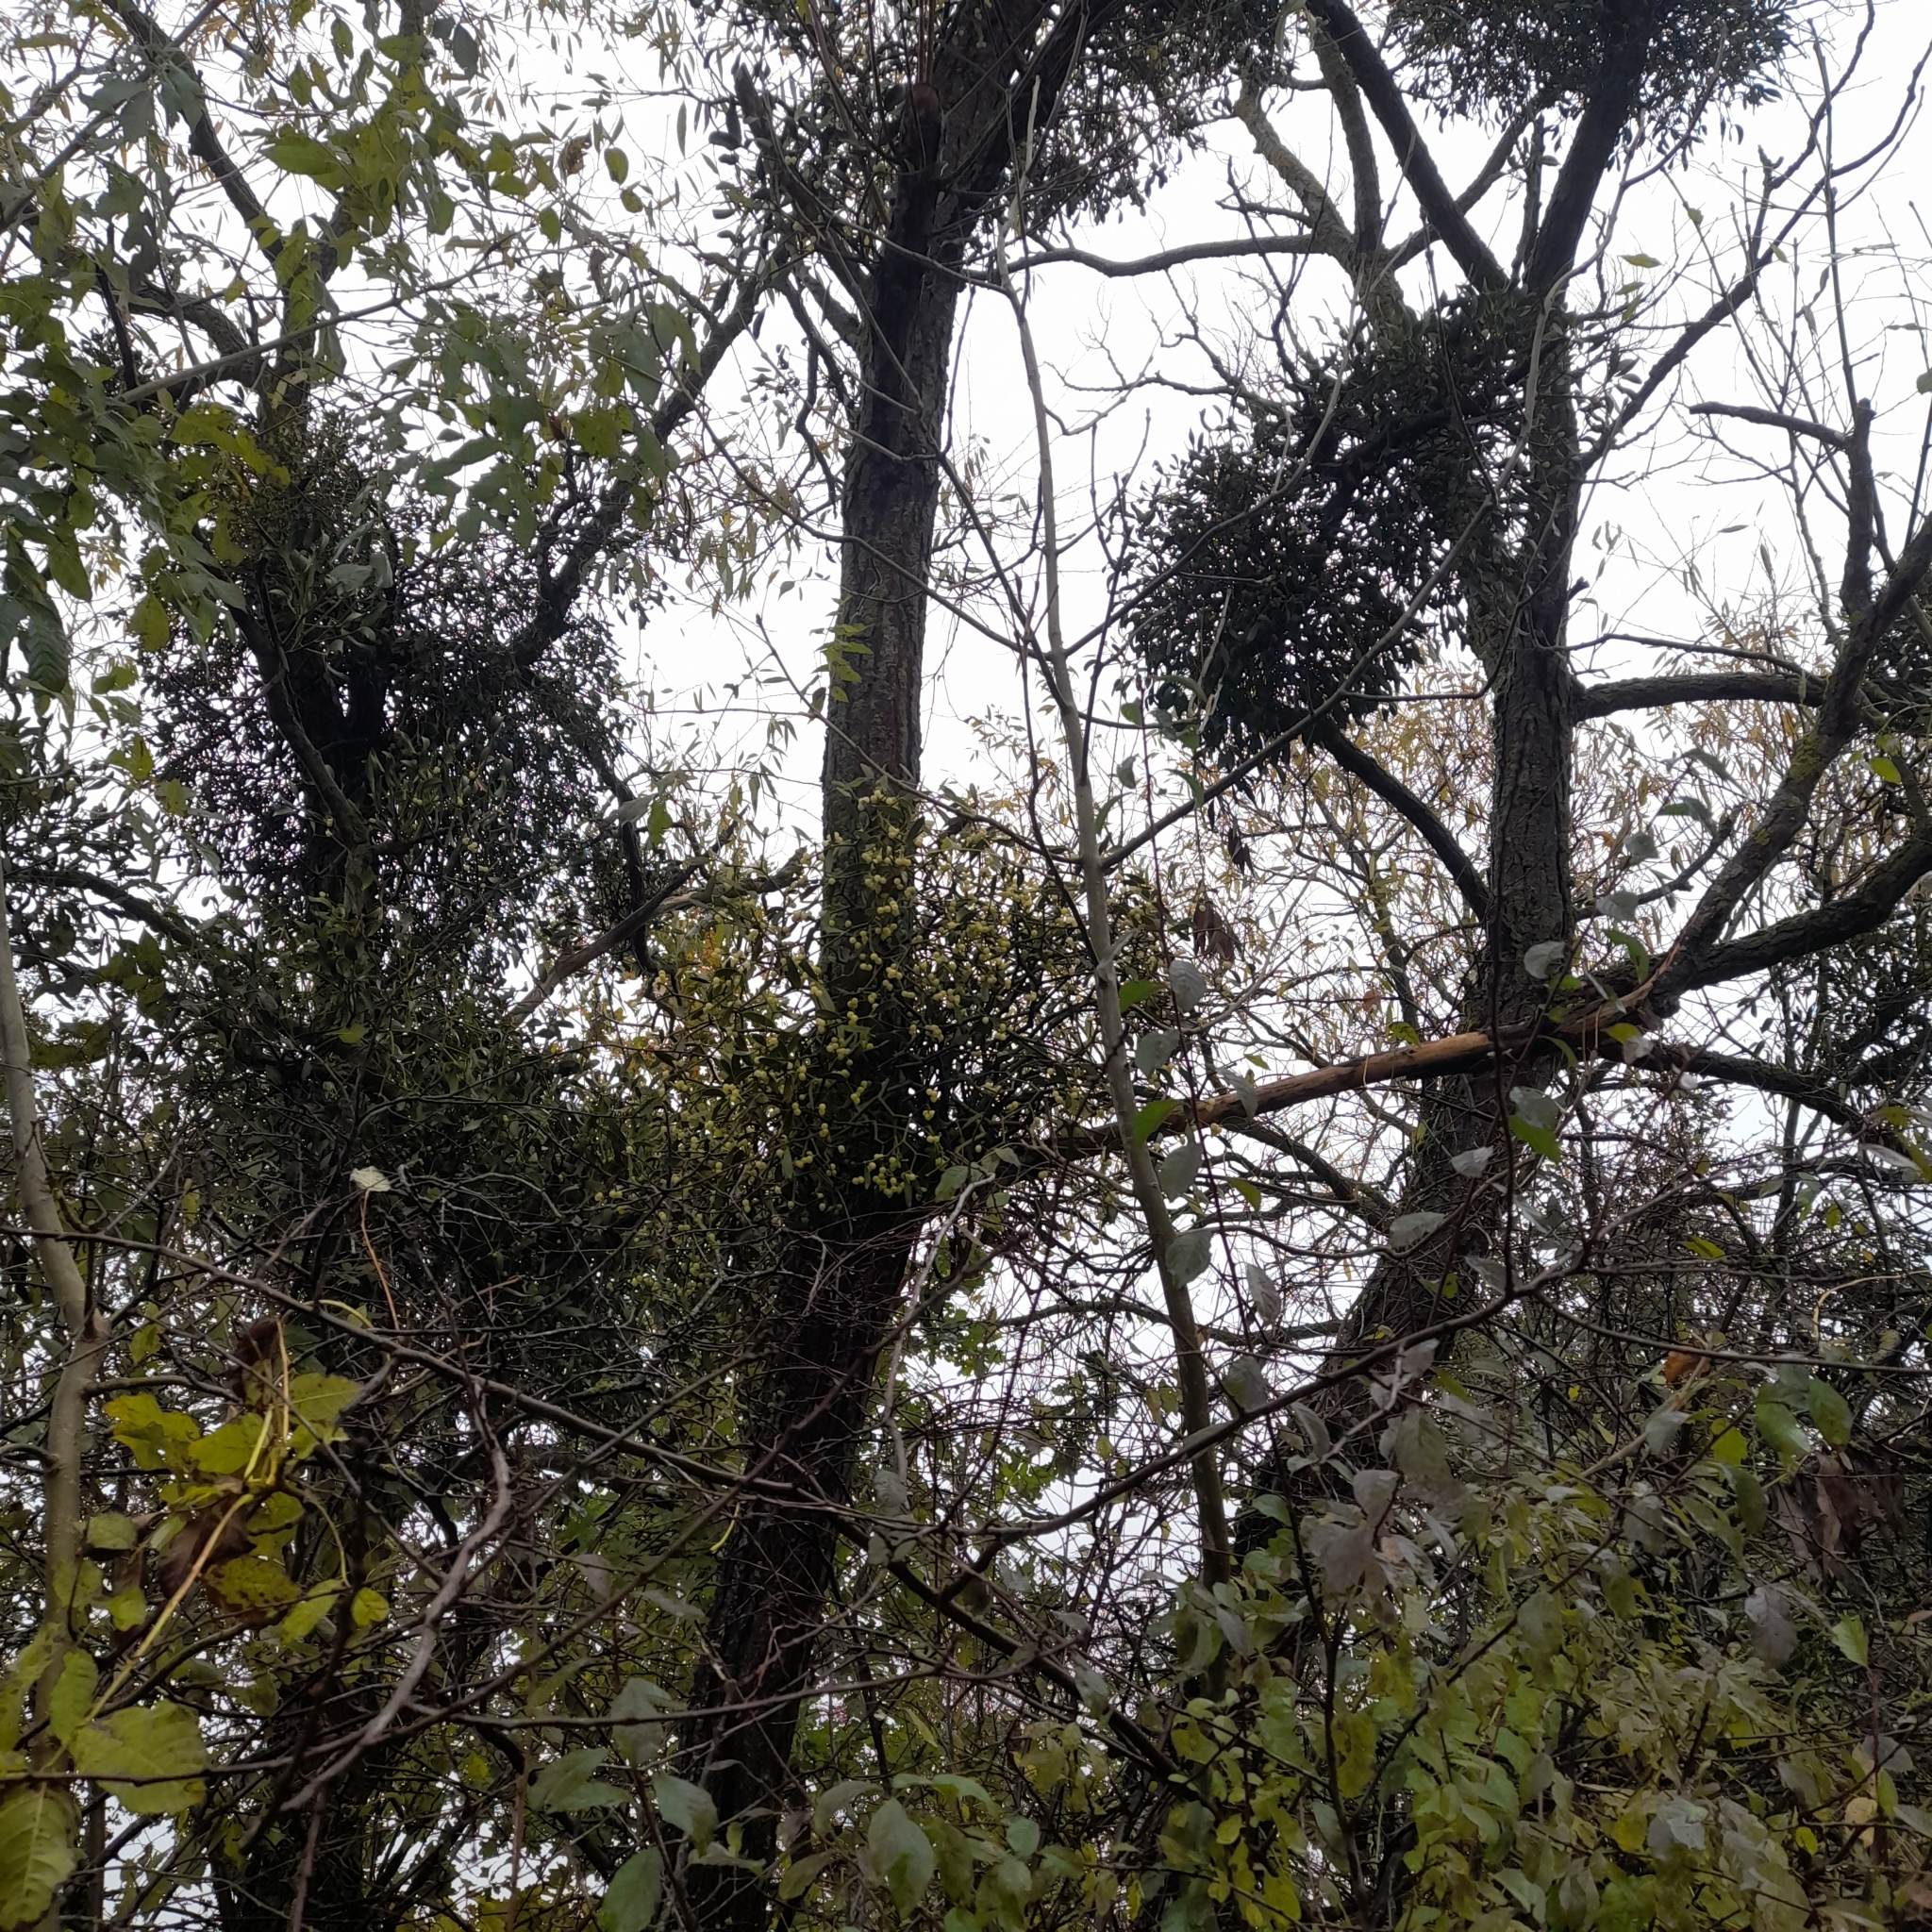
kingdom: Plantae
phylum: Tracheophyta
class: Magnoliopsida
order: Santalales
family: Viscaceae
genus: Viscum
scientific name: Viscum album
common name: Mistletoe
